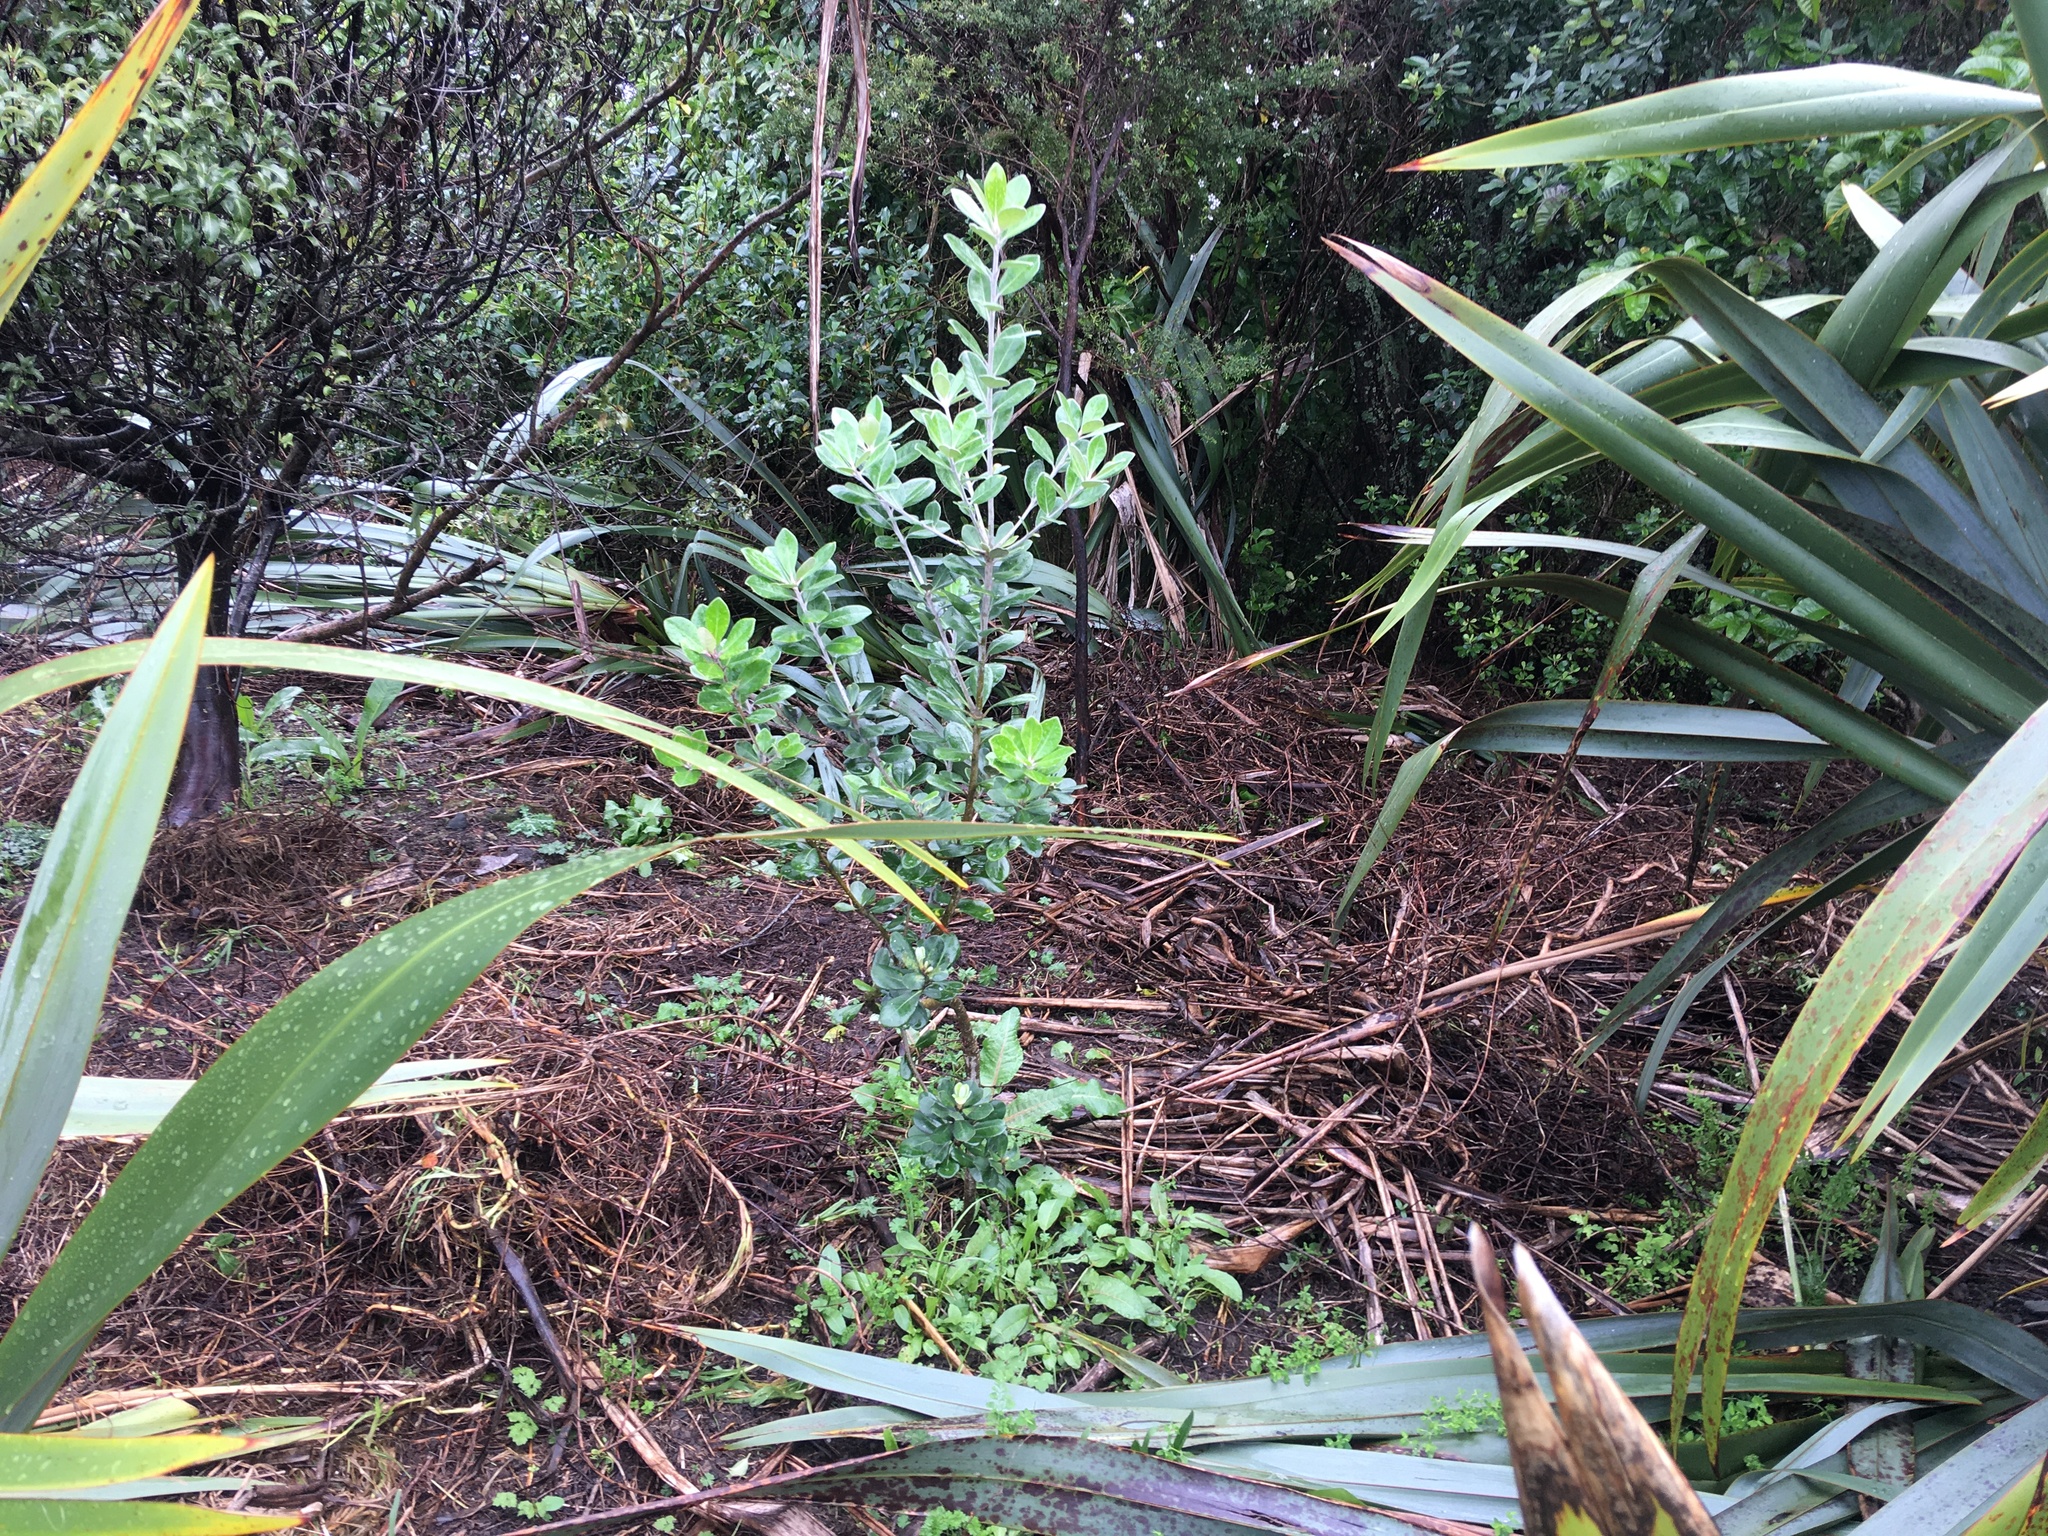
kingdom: Plantae
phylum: Tracheophyta
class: Magnoliopsida
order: Apiales
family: Pittosporaceae
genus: Pittosporum
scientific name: Pittosporum crassifolium
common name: Karo
